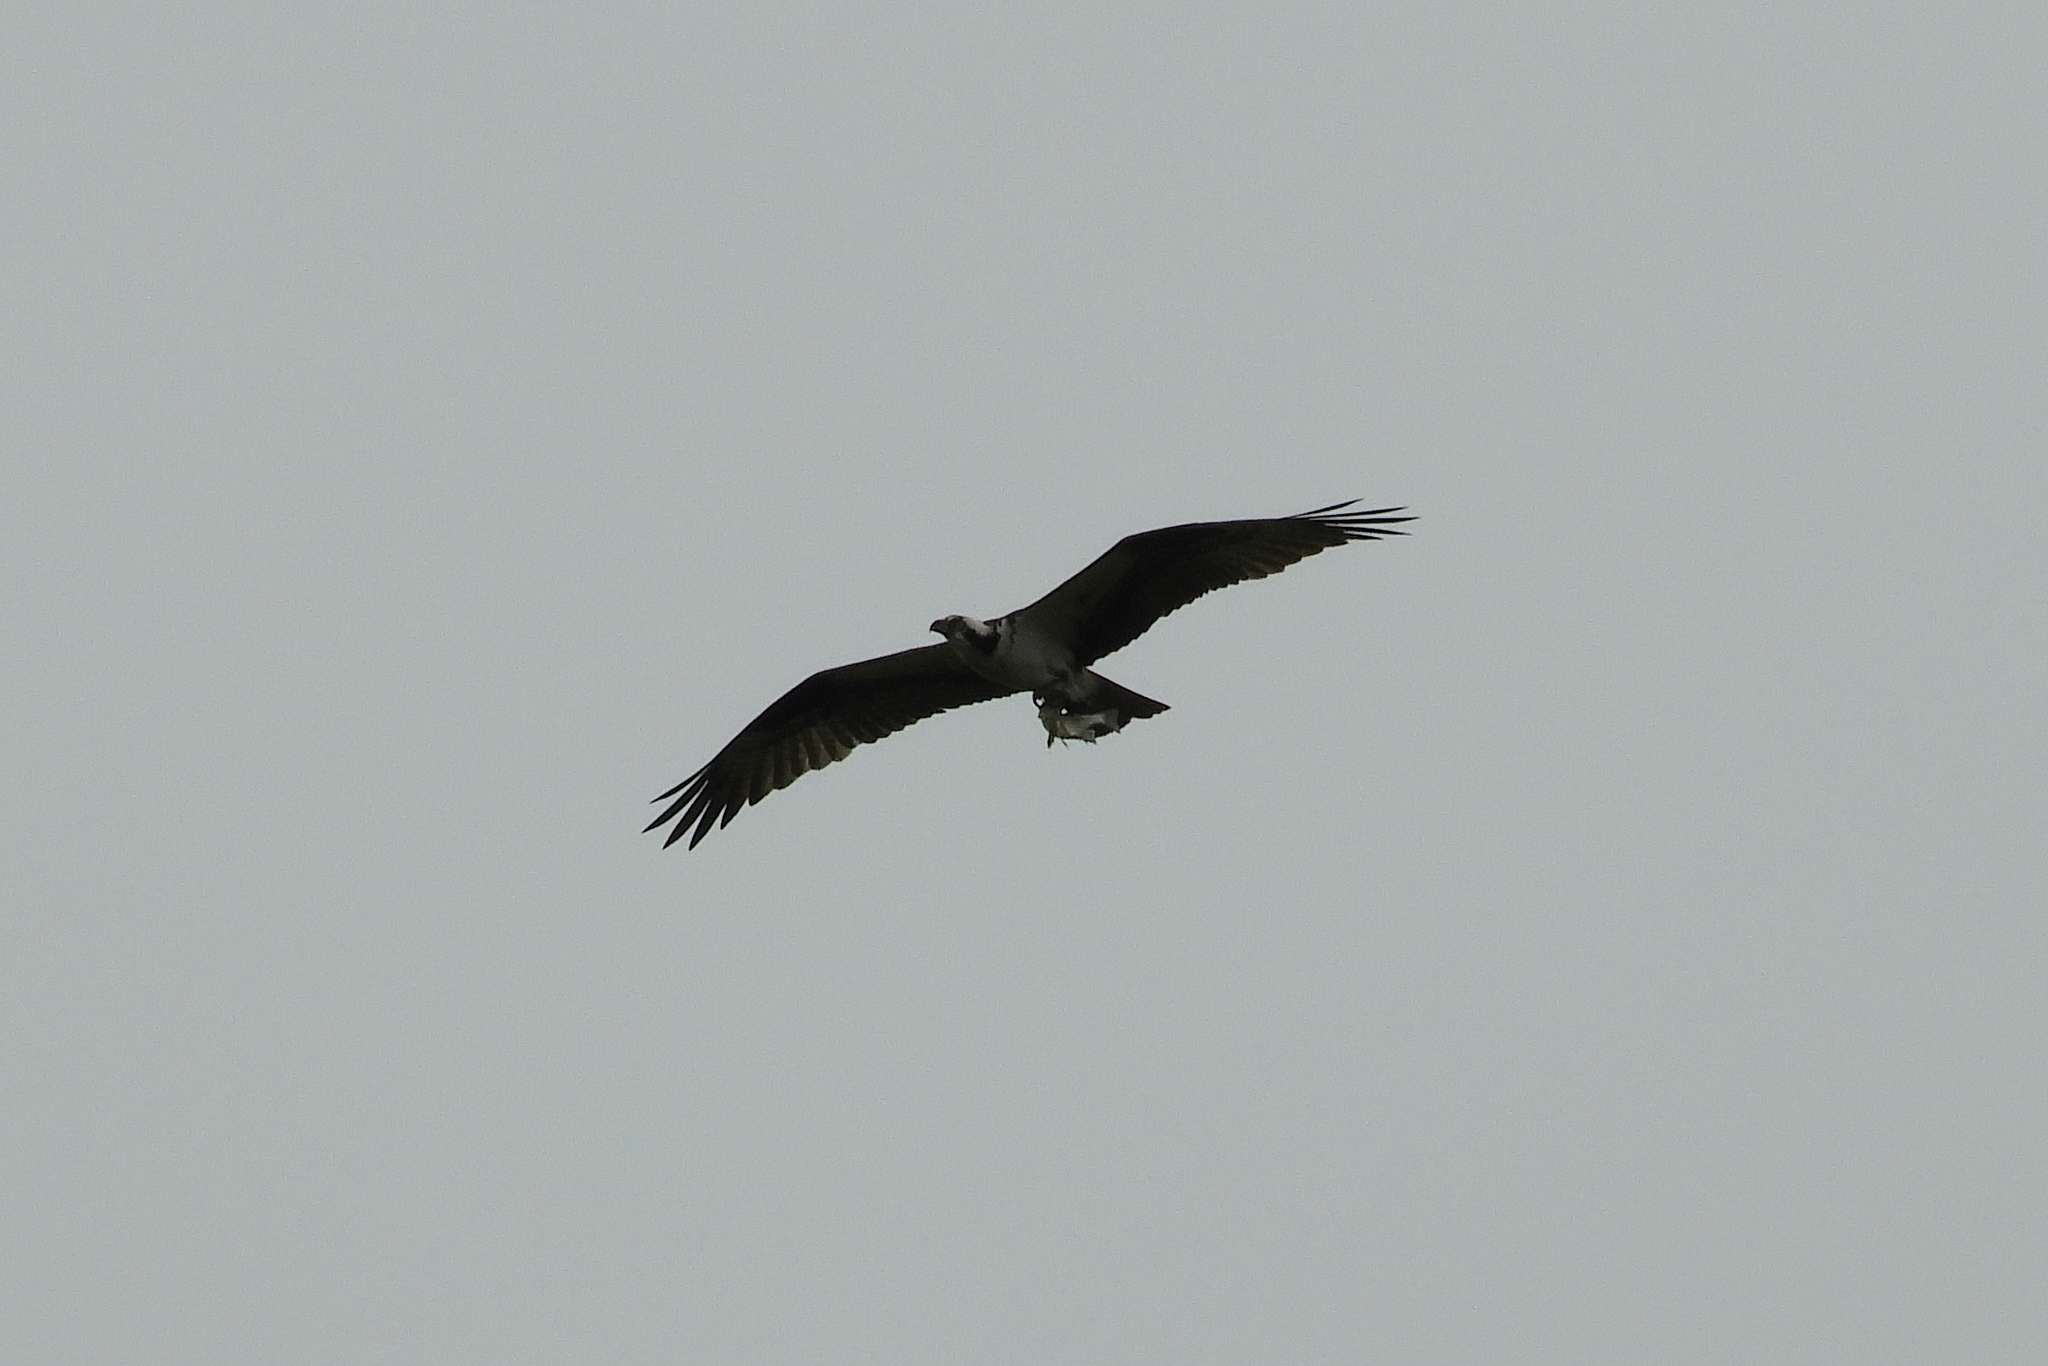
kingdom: Animalia
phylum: Chordata
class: Aves
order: Accipitriformes
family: Pandionidae
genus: Pandion
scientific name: Pandion haliaetus
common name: Osprey
